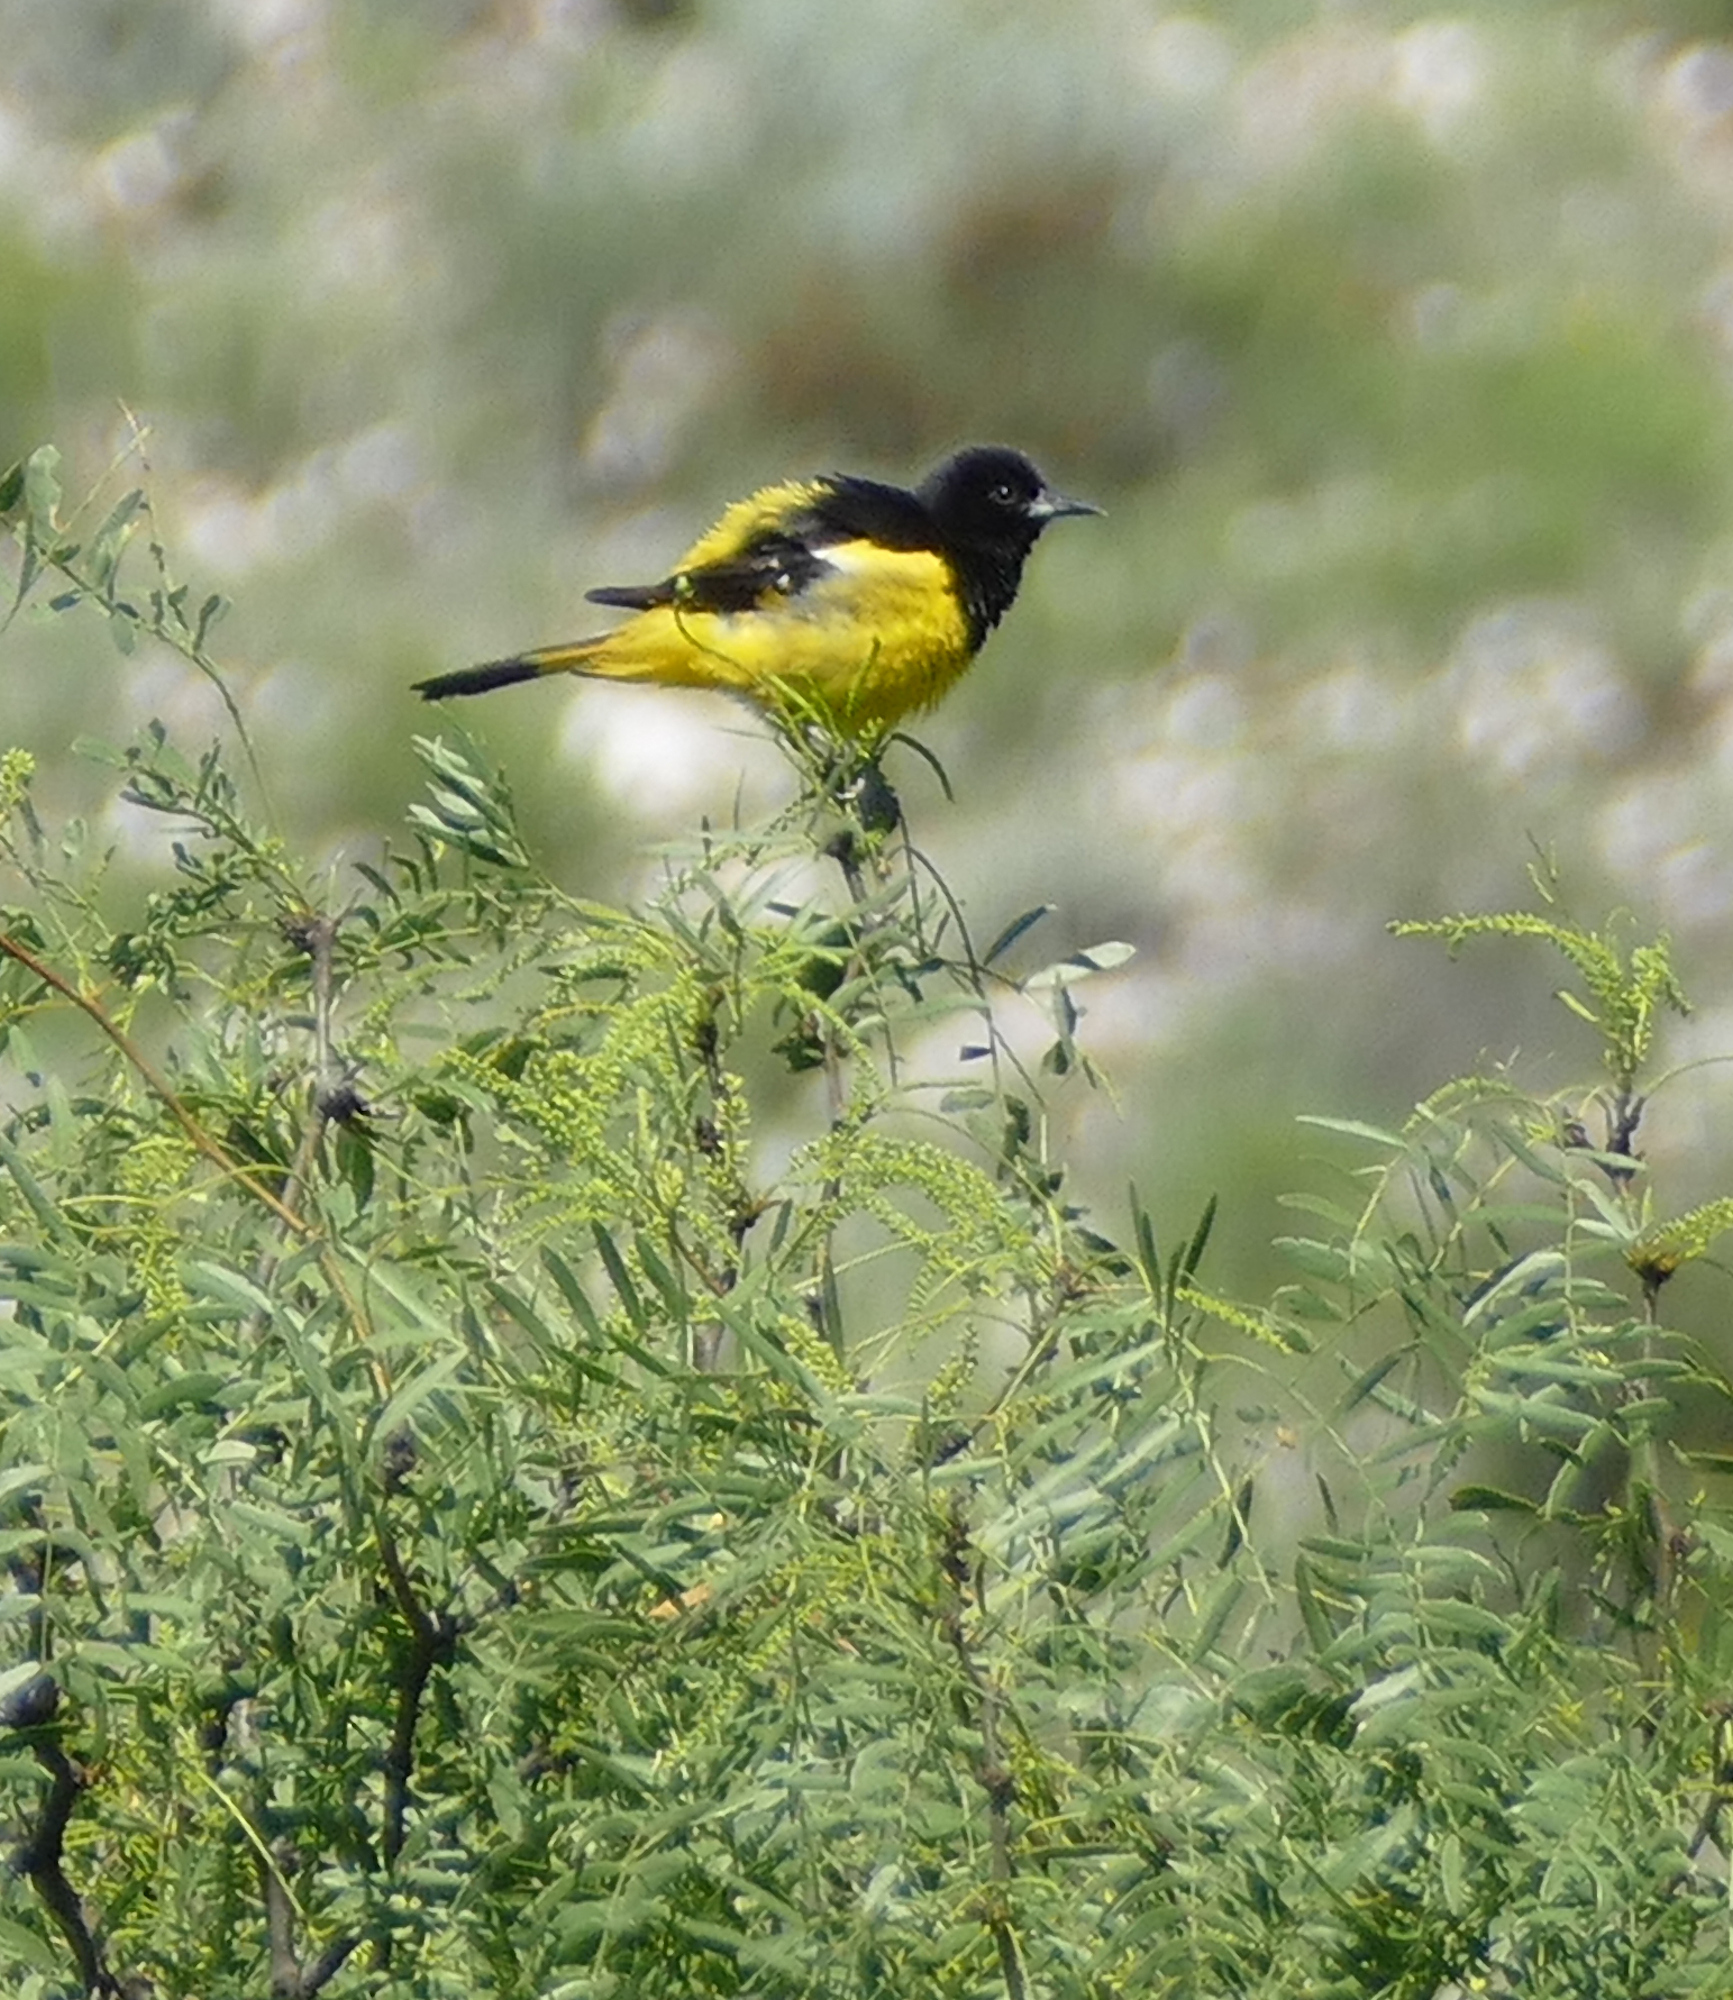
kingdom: Animalia
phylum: Chordata
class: Aves
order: Passeriformes
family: Icteridae
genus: Icterus
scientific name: Icterus parisorum
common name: Scott's oriole
